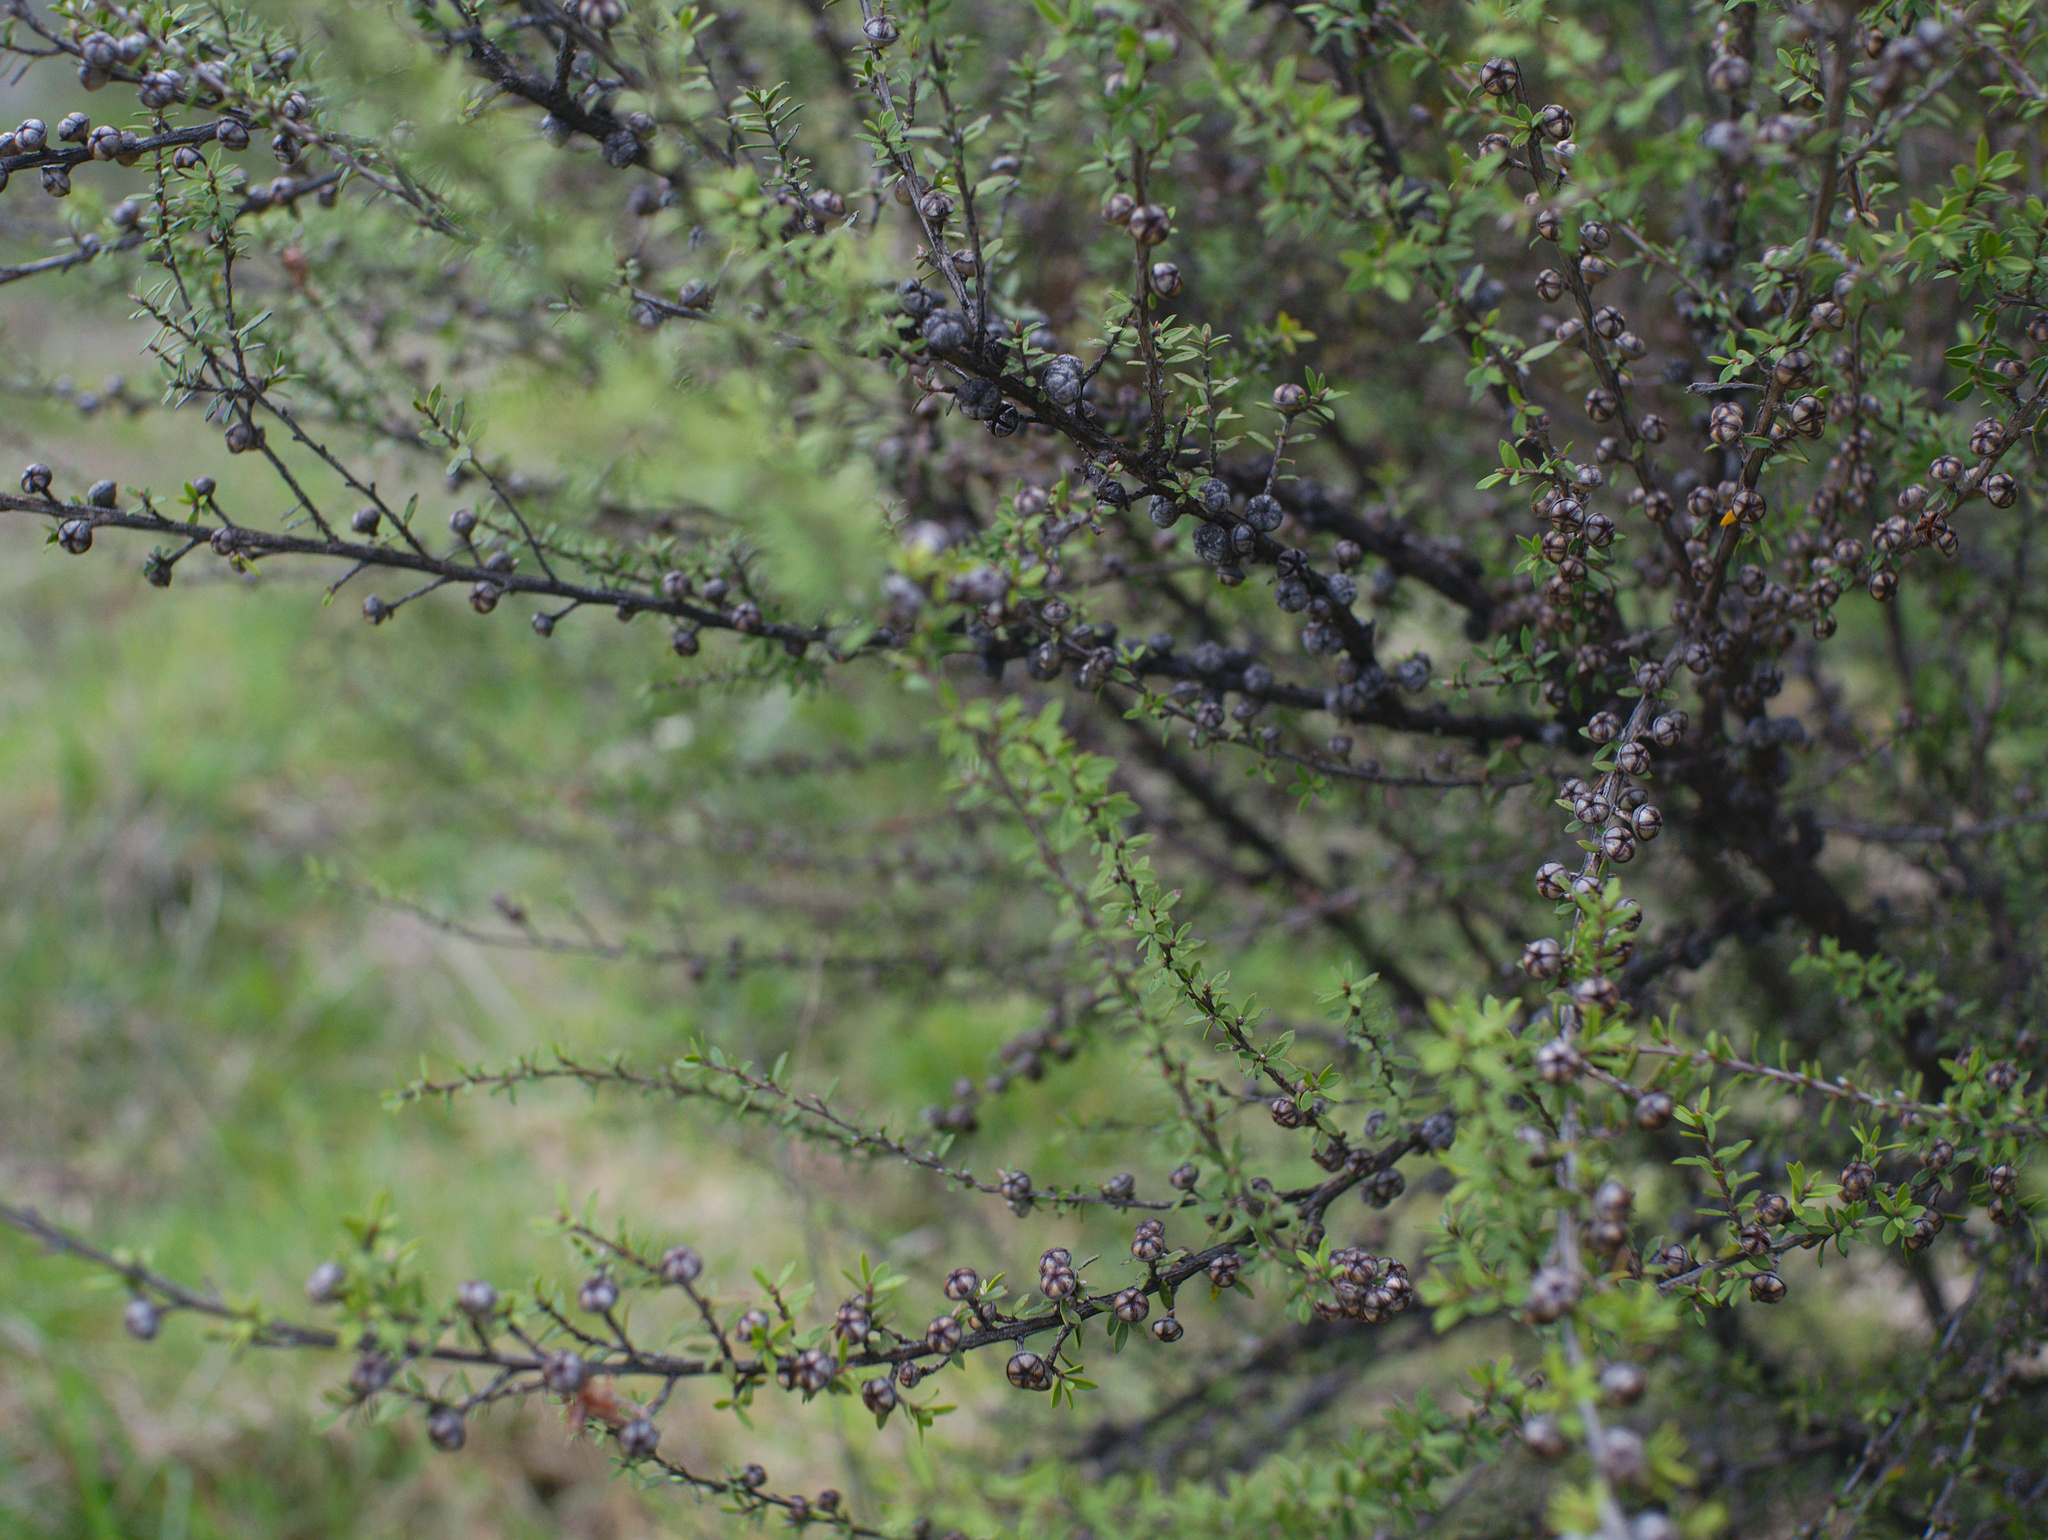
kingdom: Plantae
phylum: Tracheophyta
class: Magnoliopsida
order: Myrtales
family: Myrtaceae
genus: Leptospermum
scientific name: Leptospermum scoparium
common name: Broom tea-tree
